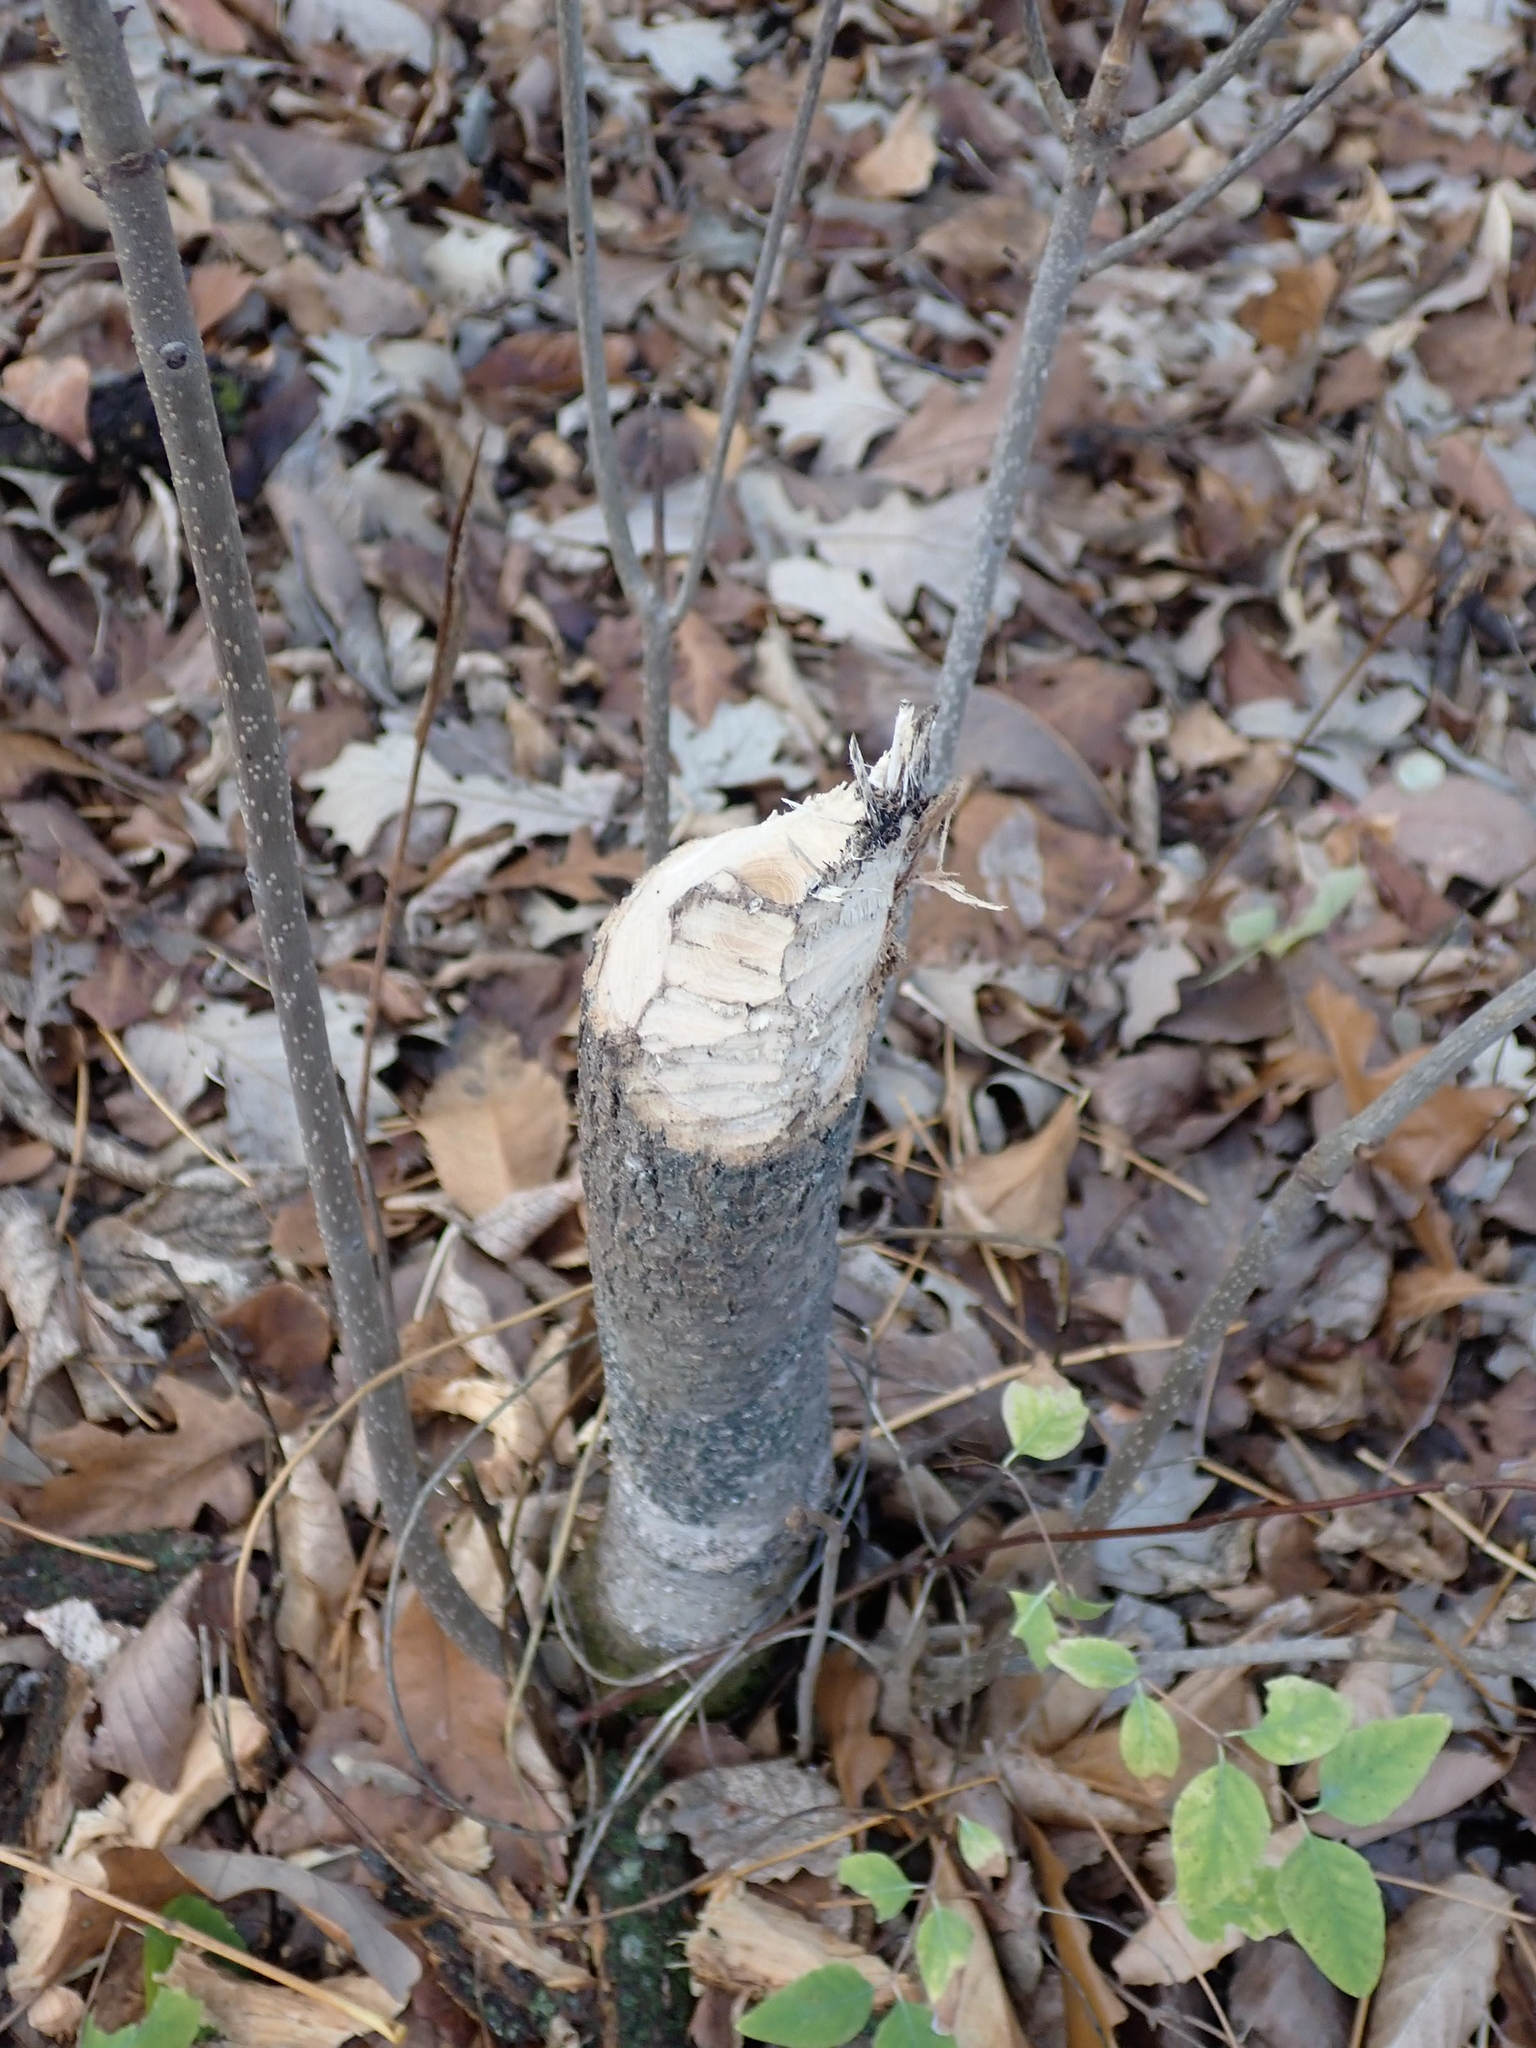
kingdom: Animalia
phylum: Chordata
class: Mammalia
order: Rodentia
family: Castoridae
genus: Castor
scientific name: Castor canadensis
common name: American beaver
